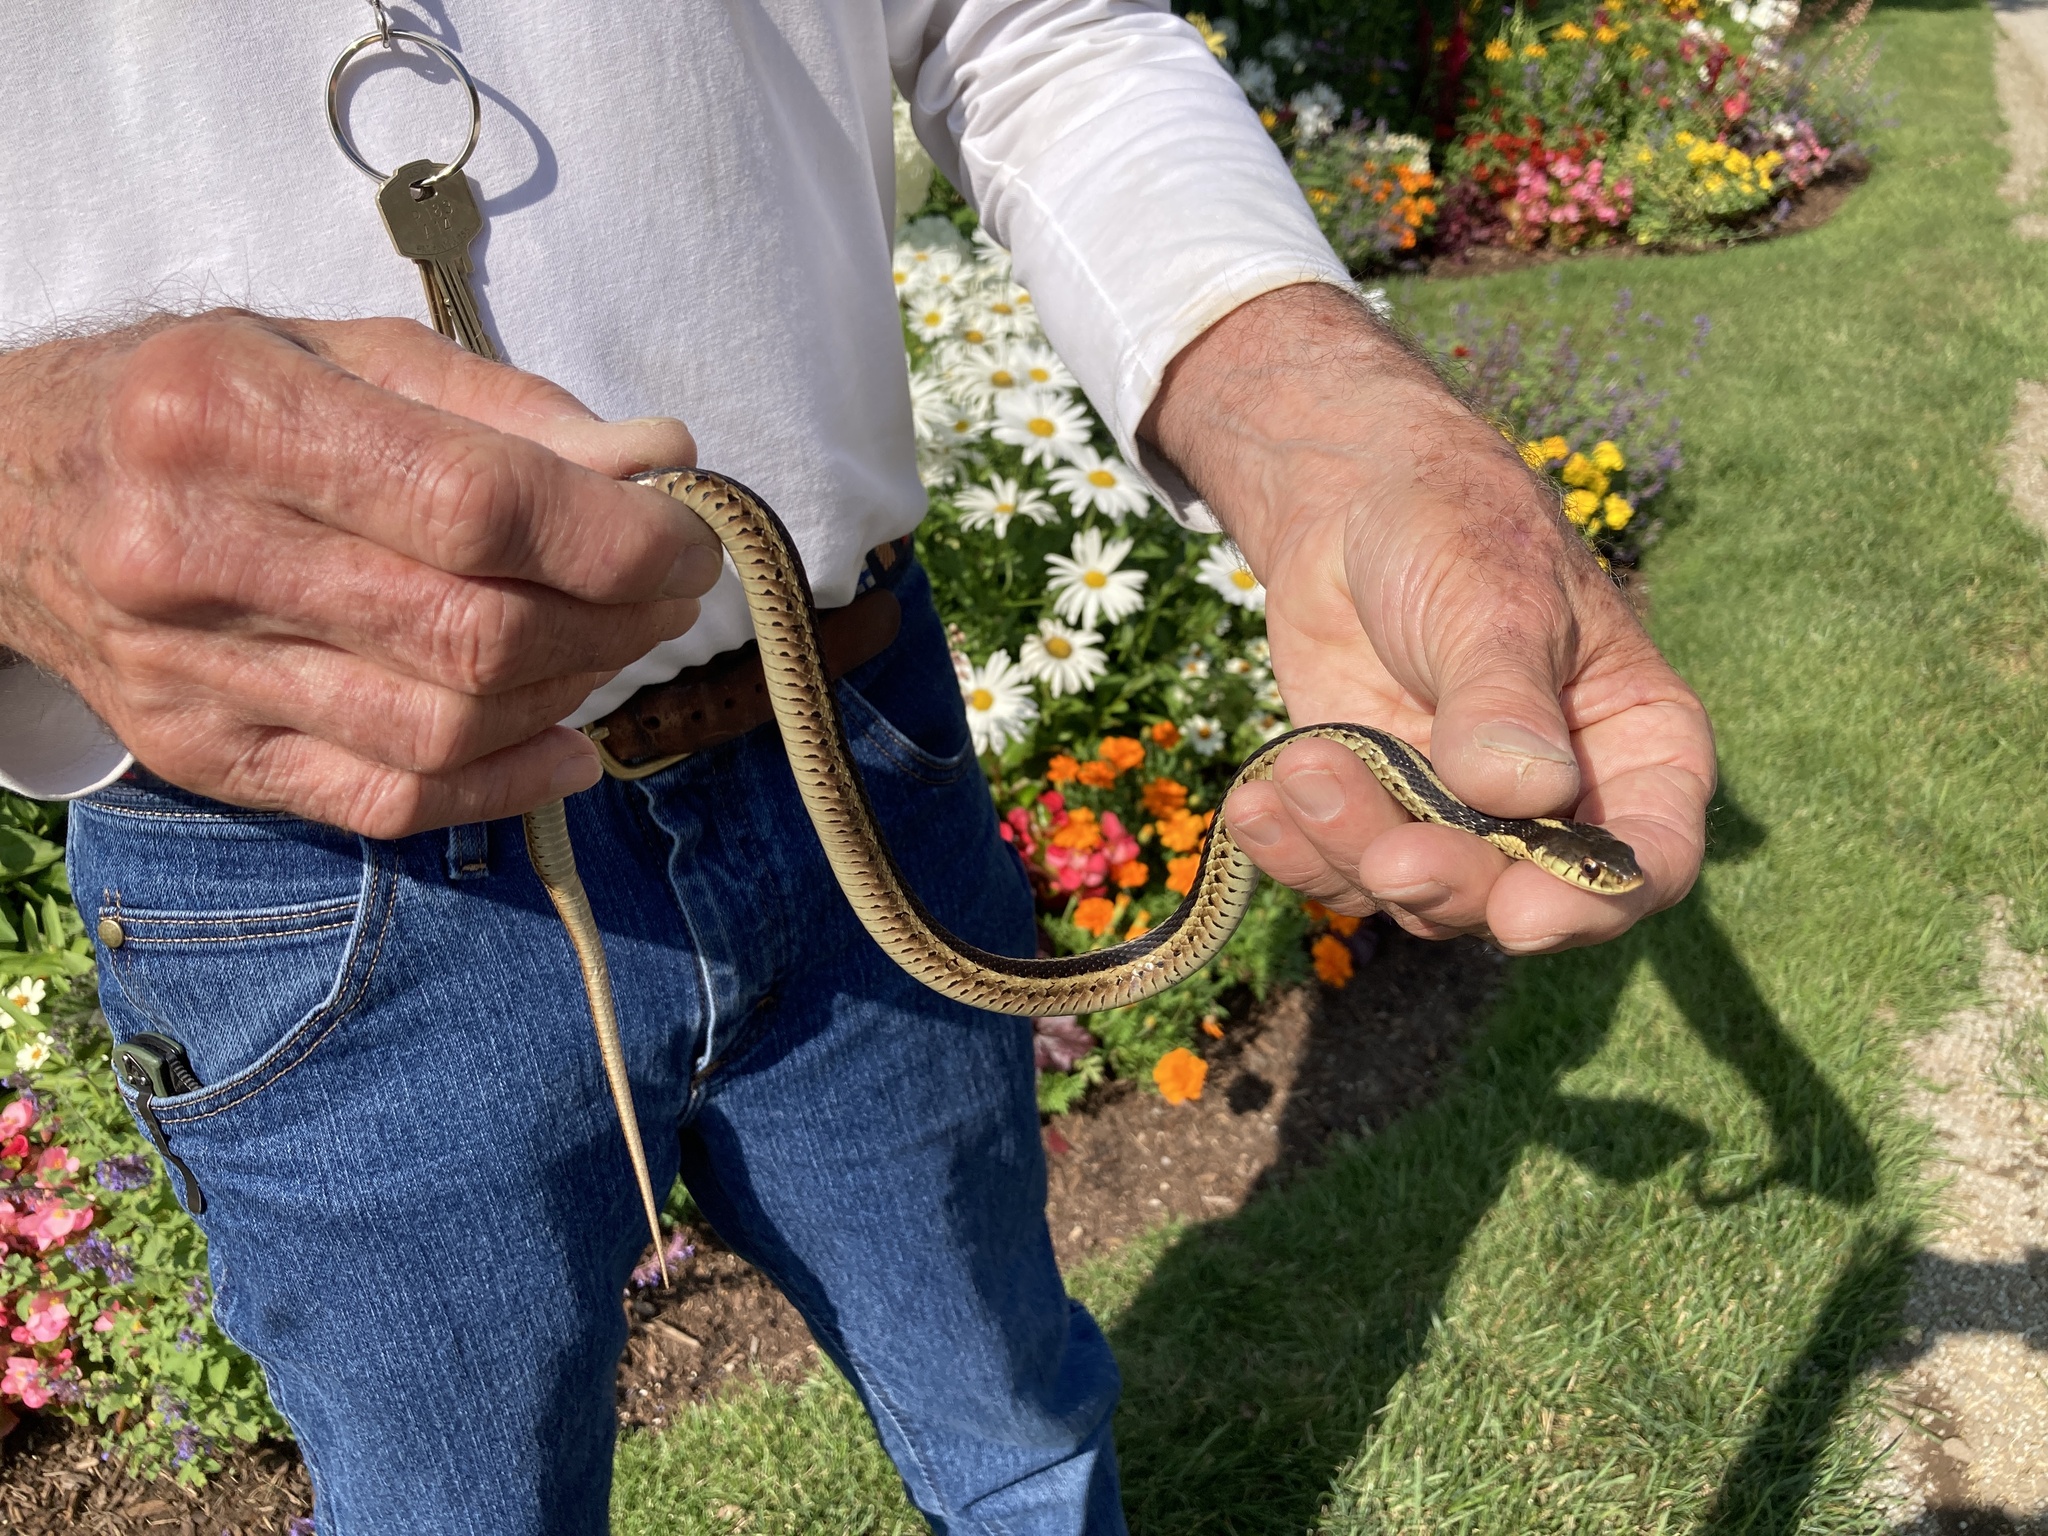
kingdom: Animalia
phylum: Chordata
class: Squamata
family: Colubridae
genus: Thamnophis
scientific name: Thamnophis sirtalis
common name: Common garter snake
